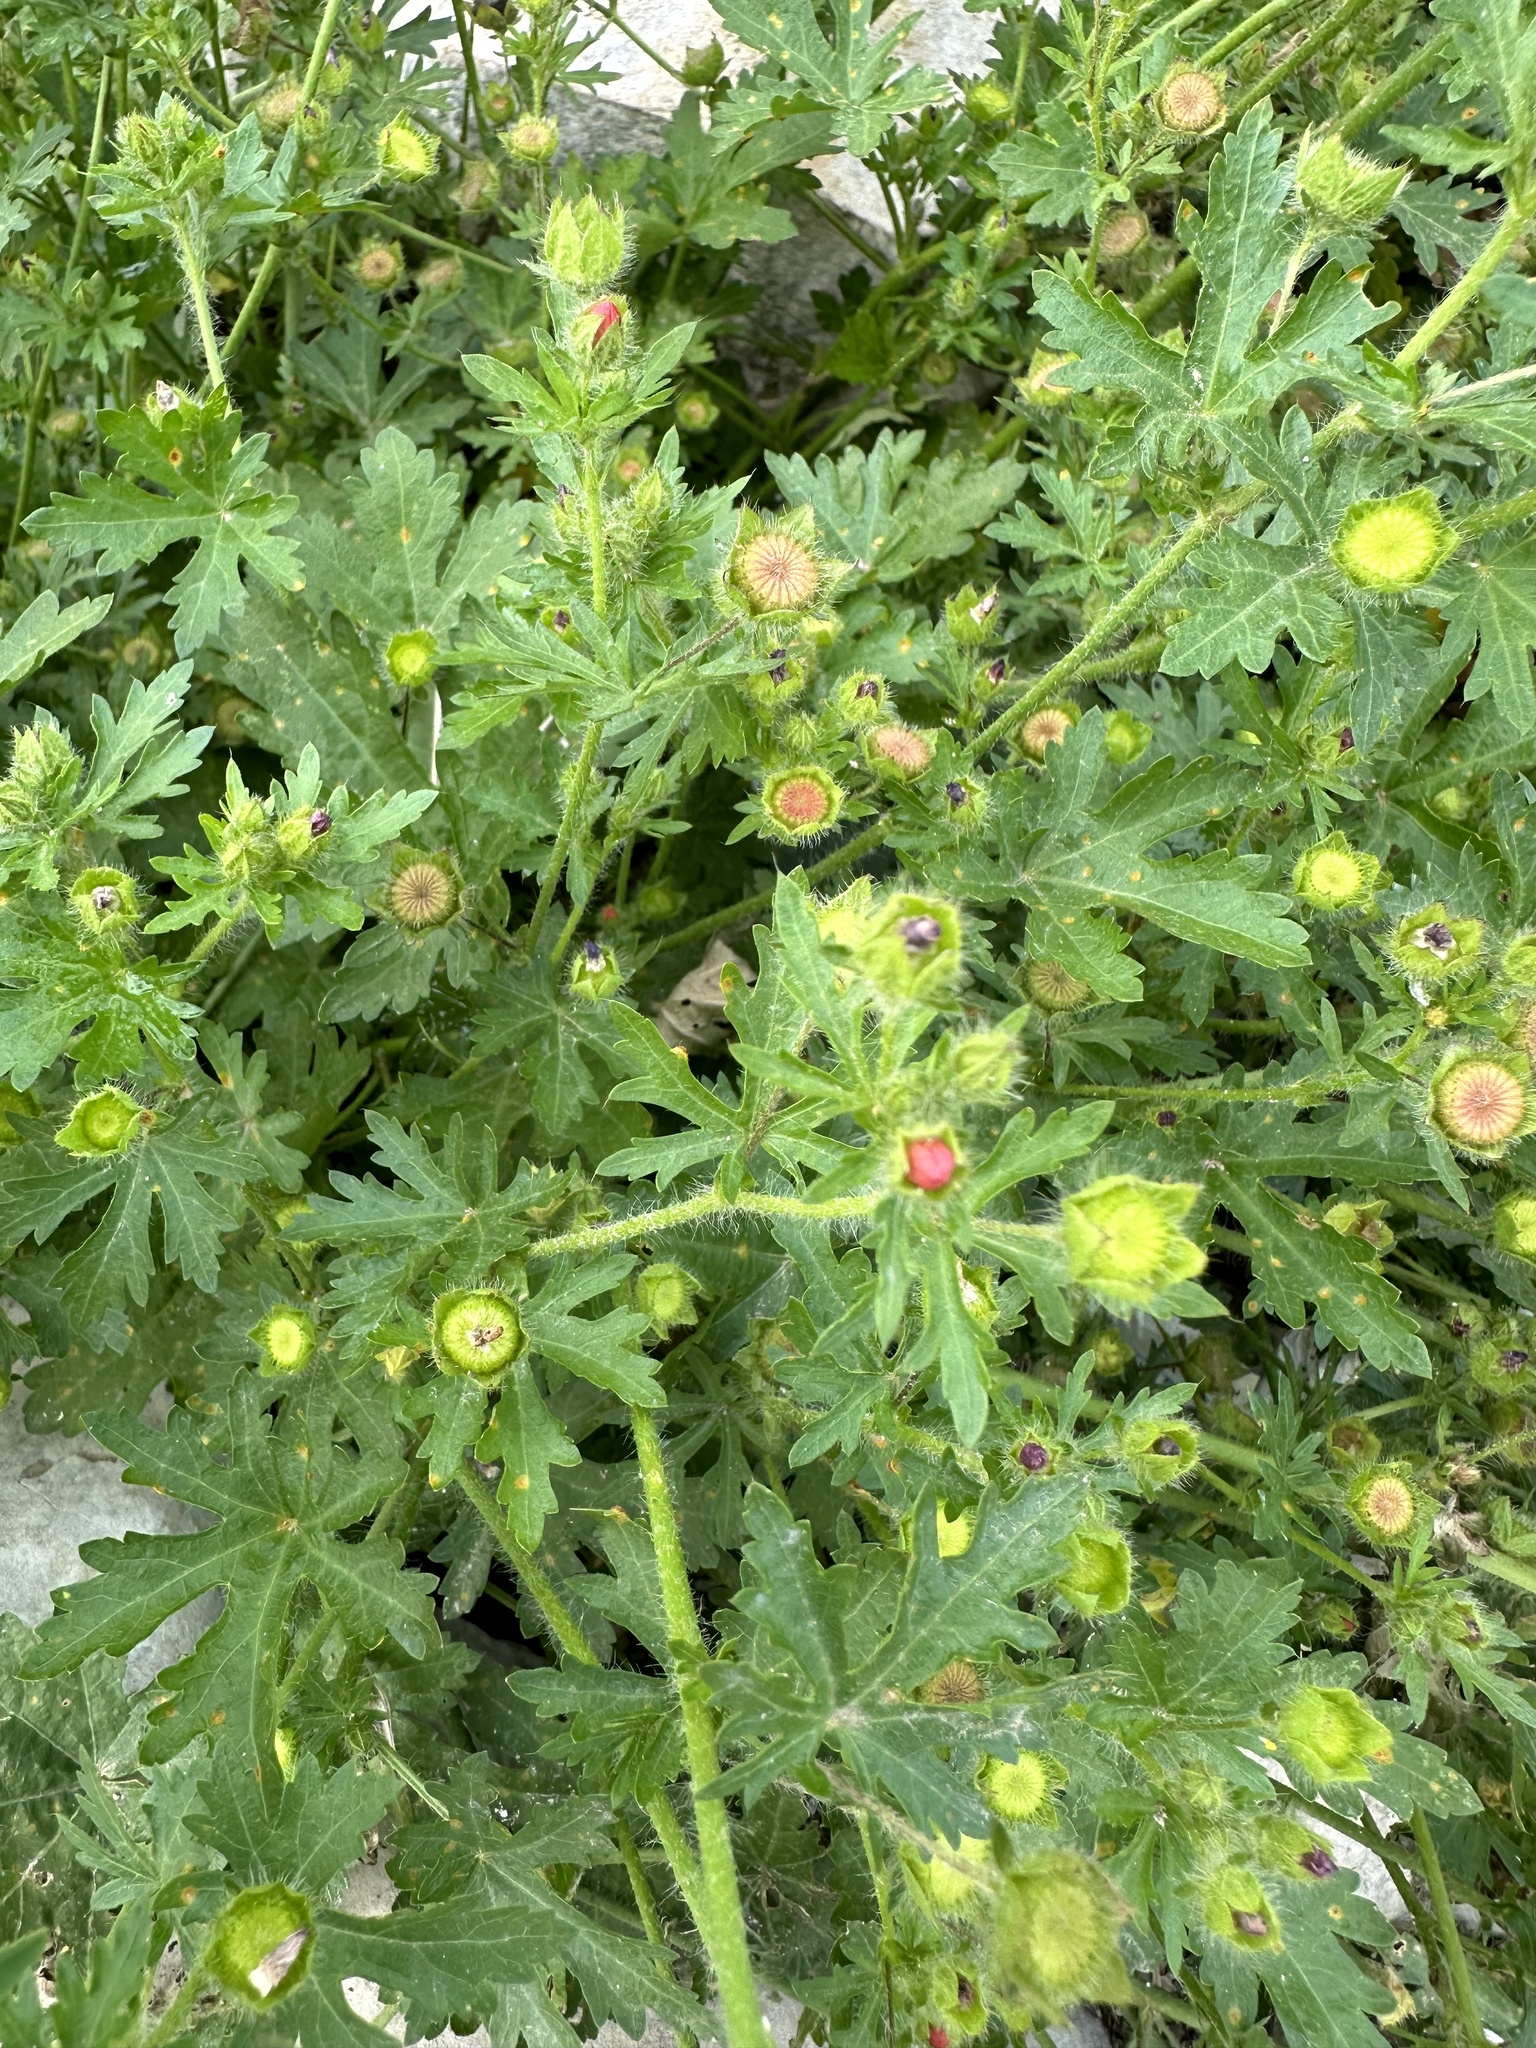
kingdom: Plantae
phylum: Tracheophyta
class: Magnoliopsida
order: Malvales
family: Malvaceae
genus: Modiola
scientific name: Modiola caroliniana
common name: Carolina bristlemallow
